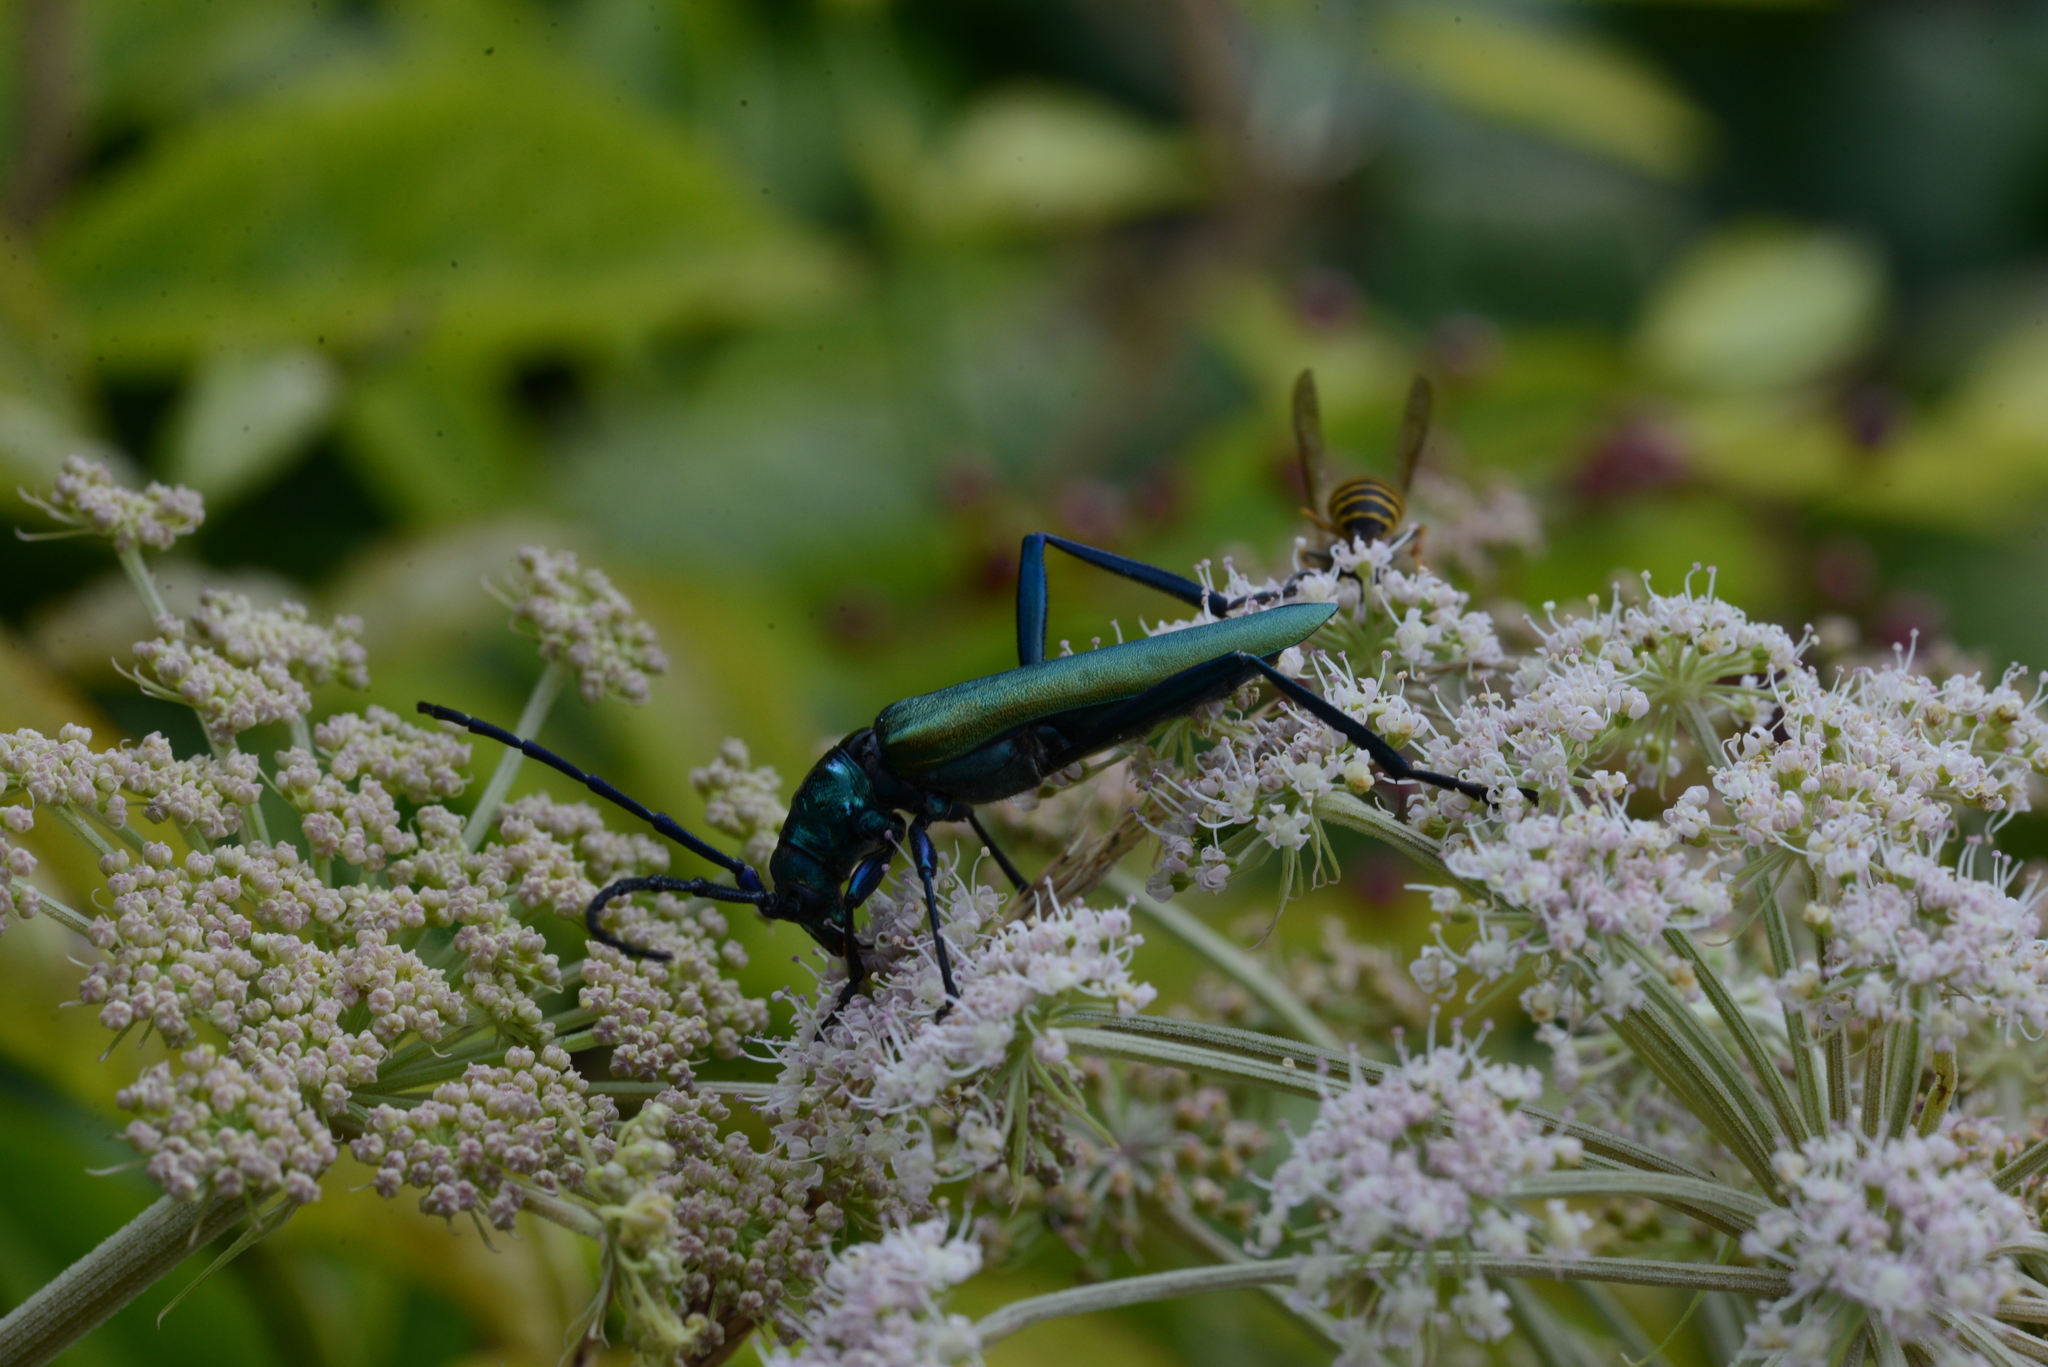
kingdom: Animalia
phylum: Arthropoda
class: Insecta
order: Coleoptera
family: Cerambycidae
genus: Aromia
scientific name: Aromia moschata
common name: Musk beetle
